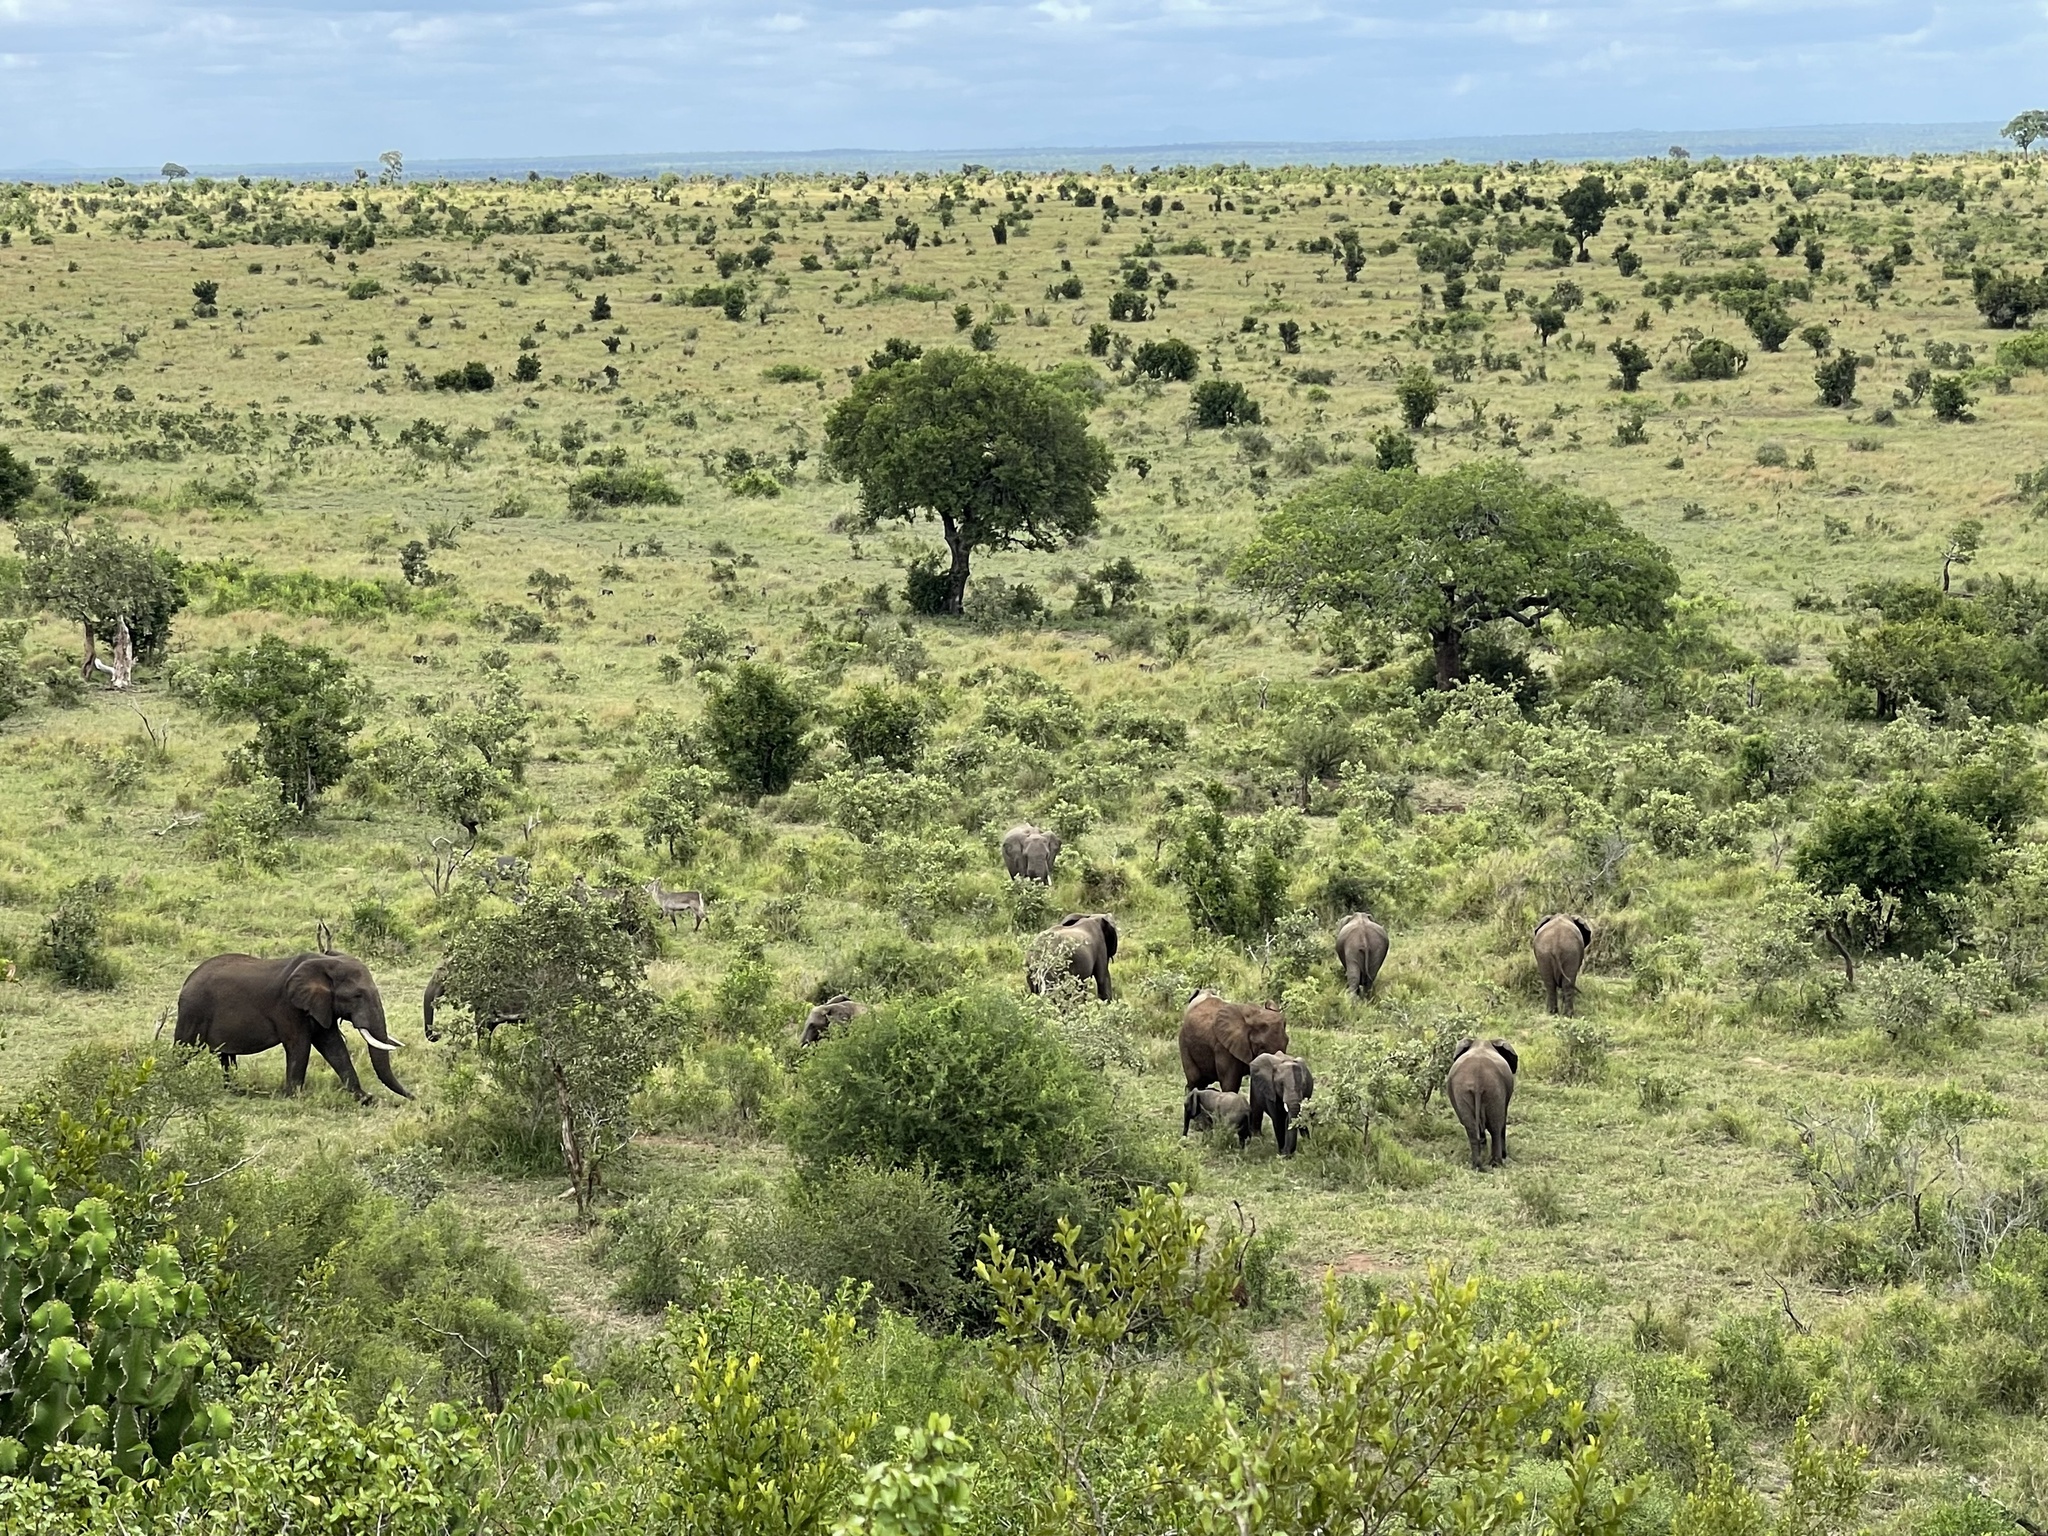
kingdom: Animalia
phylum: Chordata
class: Mammalia
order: Proboscidea
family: Elephantidae
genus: Loxodonta
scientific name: Loxodonta africana
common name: African elephant
